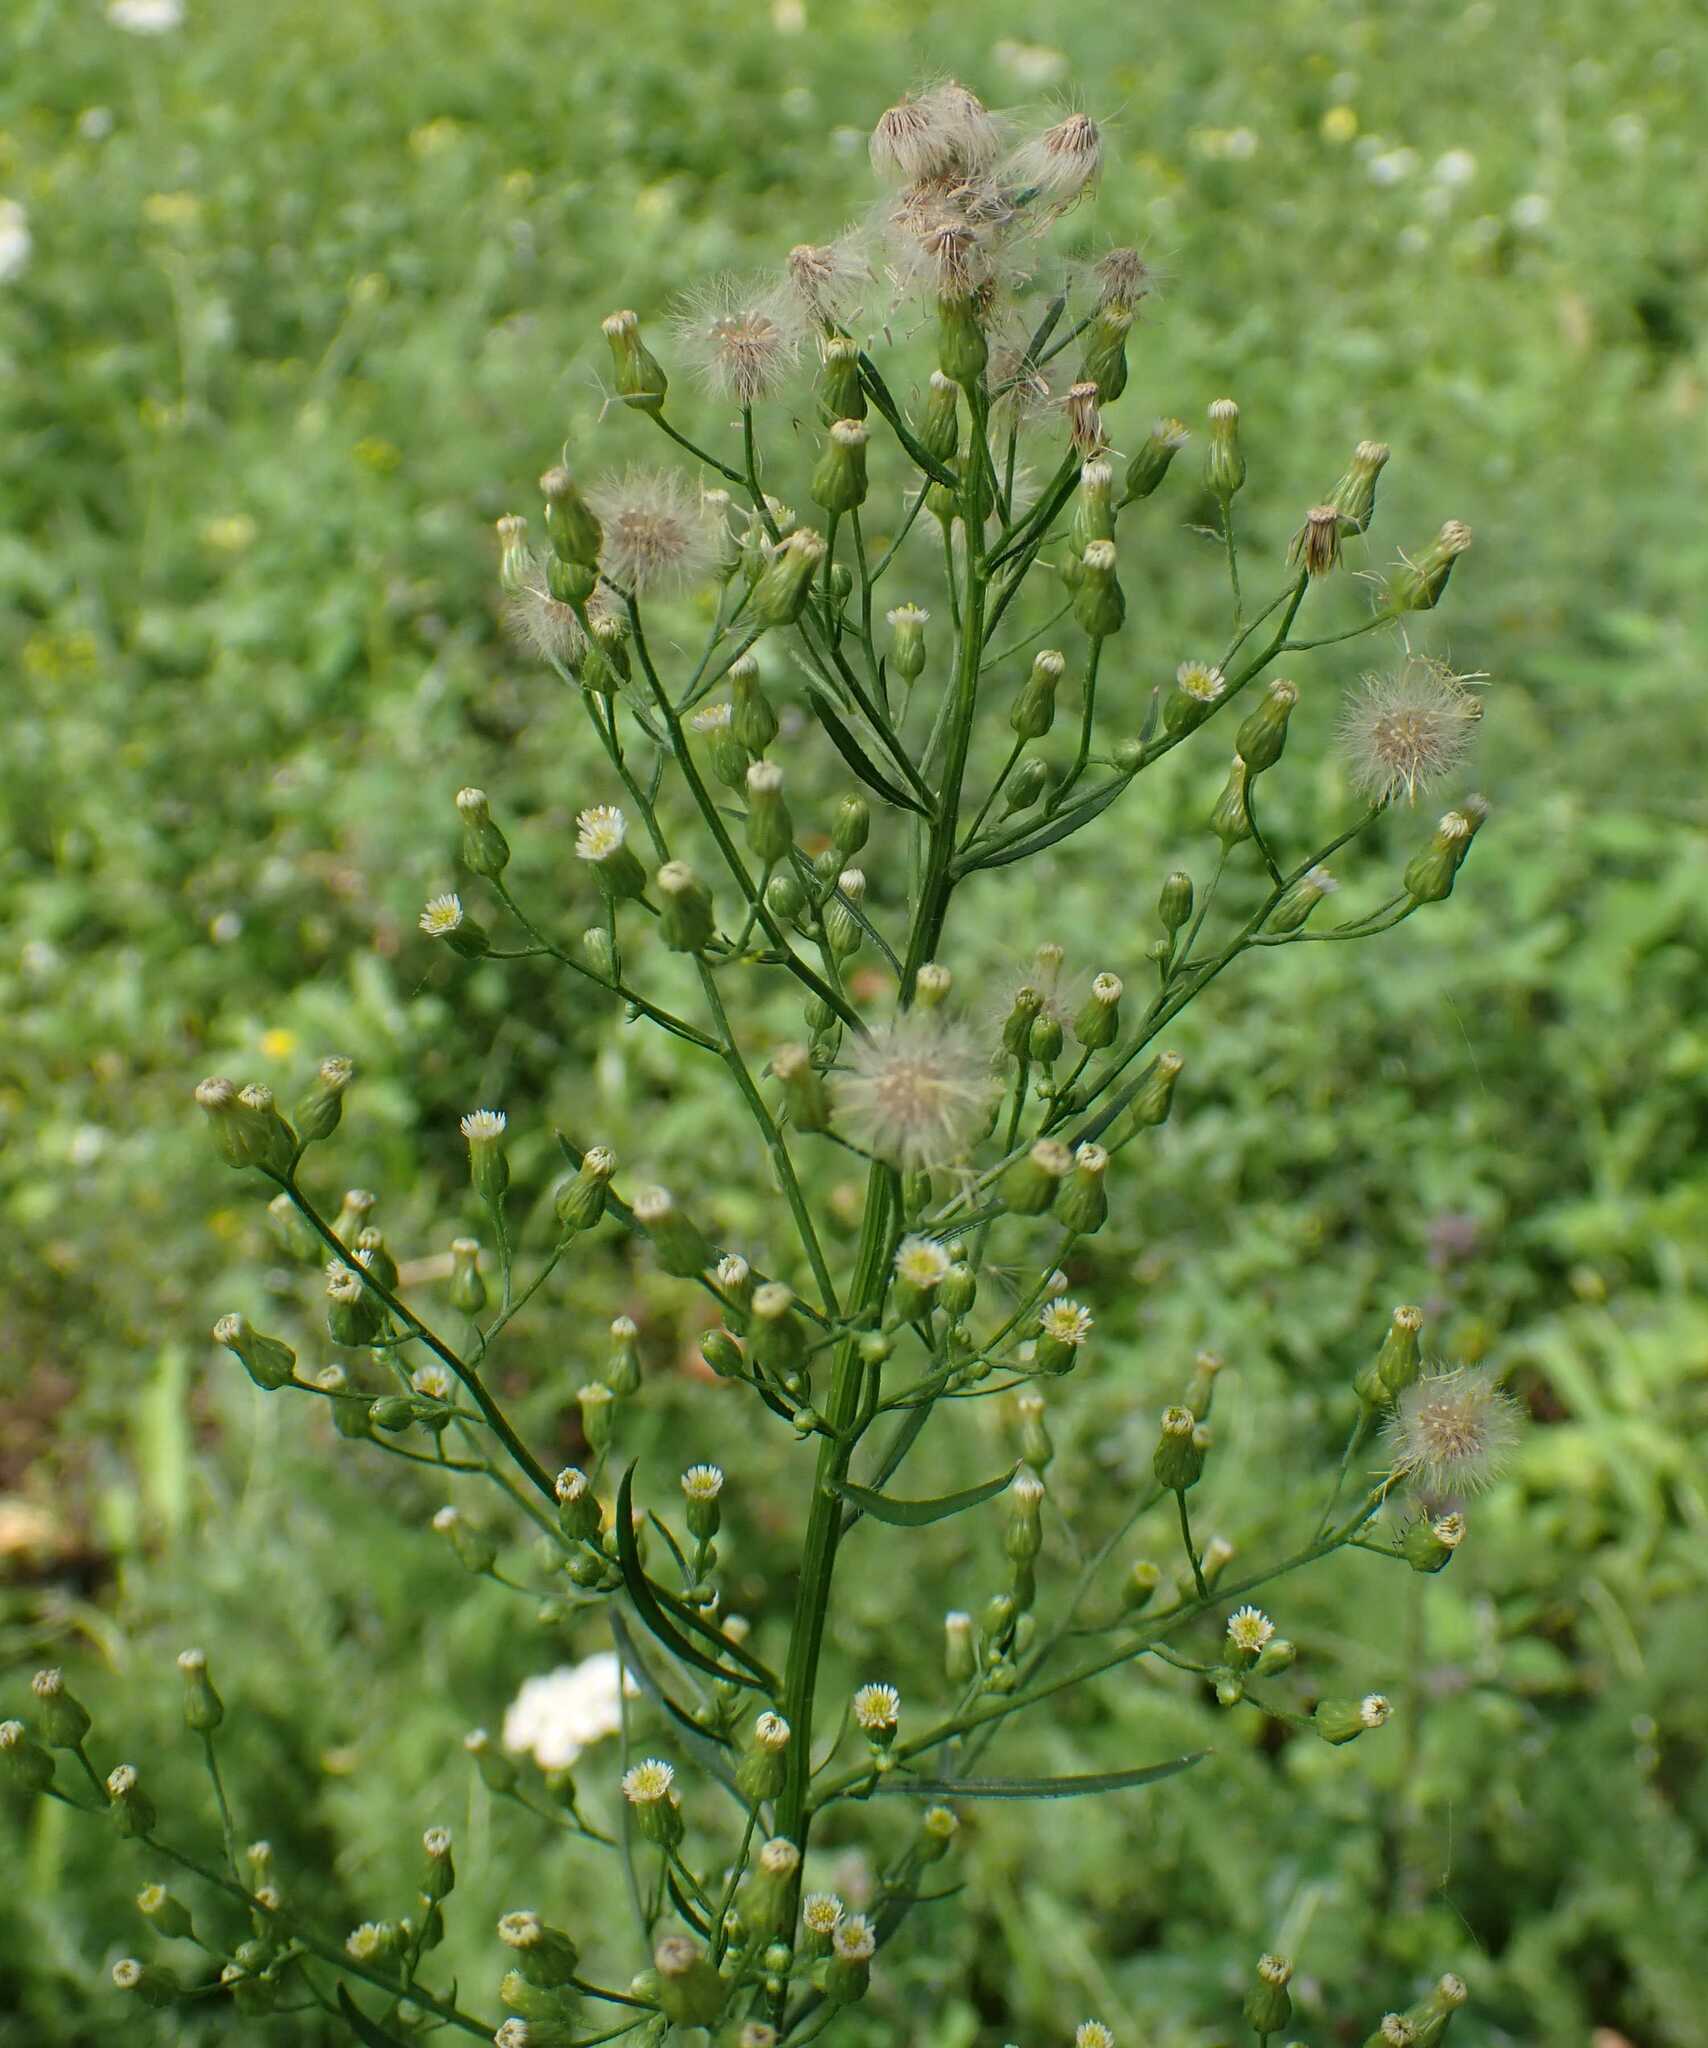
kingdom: Plantae
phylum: Tracheophyta
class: Magnoliopsida
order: Asterales
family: Asteraceae
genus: Erigeron
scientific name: Erigeron canadensis
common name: Canadian fleabane
